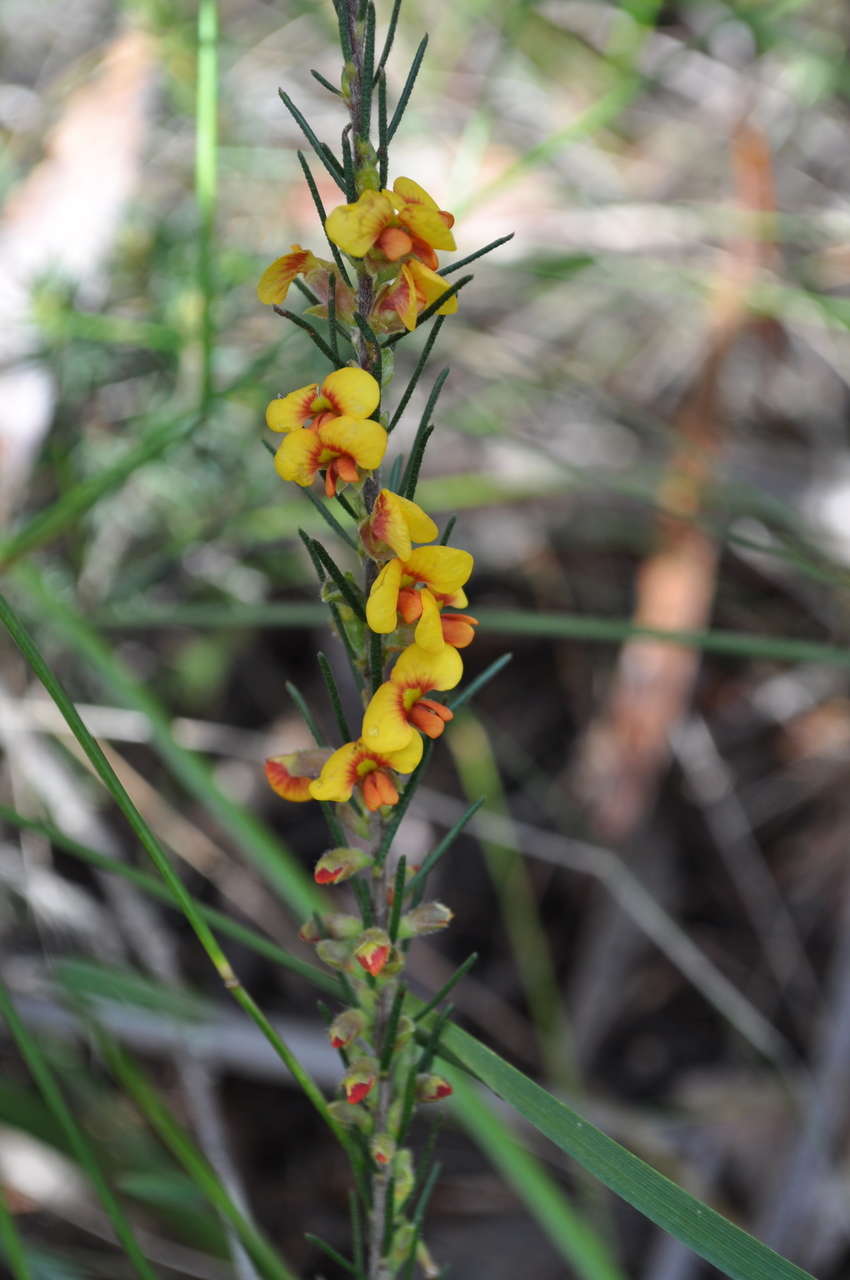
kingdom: Plantae
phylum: Tracheophyta
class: Magnoliopsida
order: Fabales
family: Fabaceae
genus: Dillwynia
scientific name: Dillwynia sericea
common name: Showy parrot-pea
